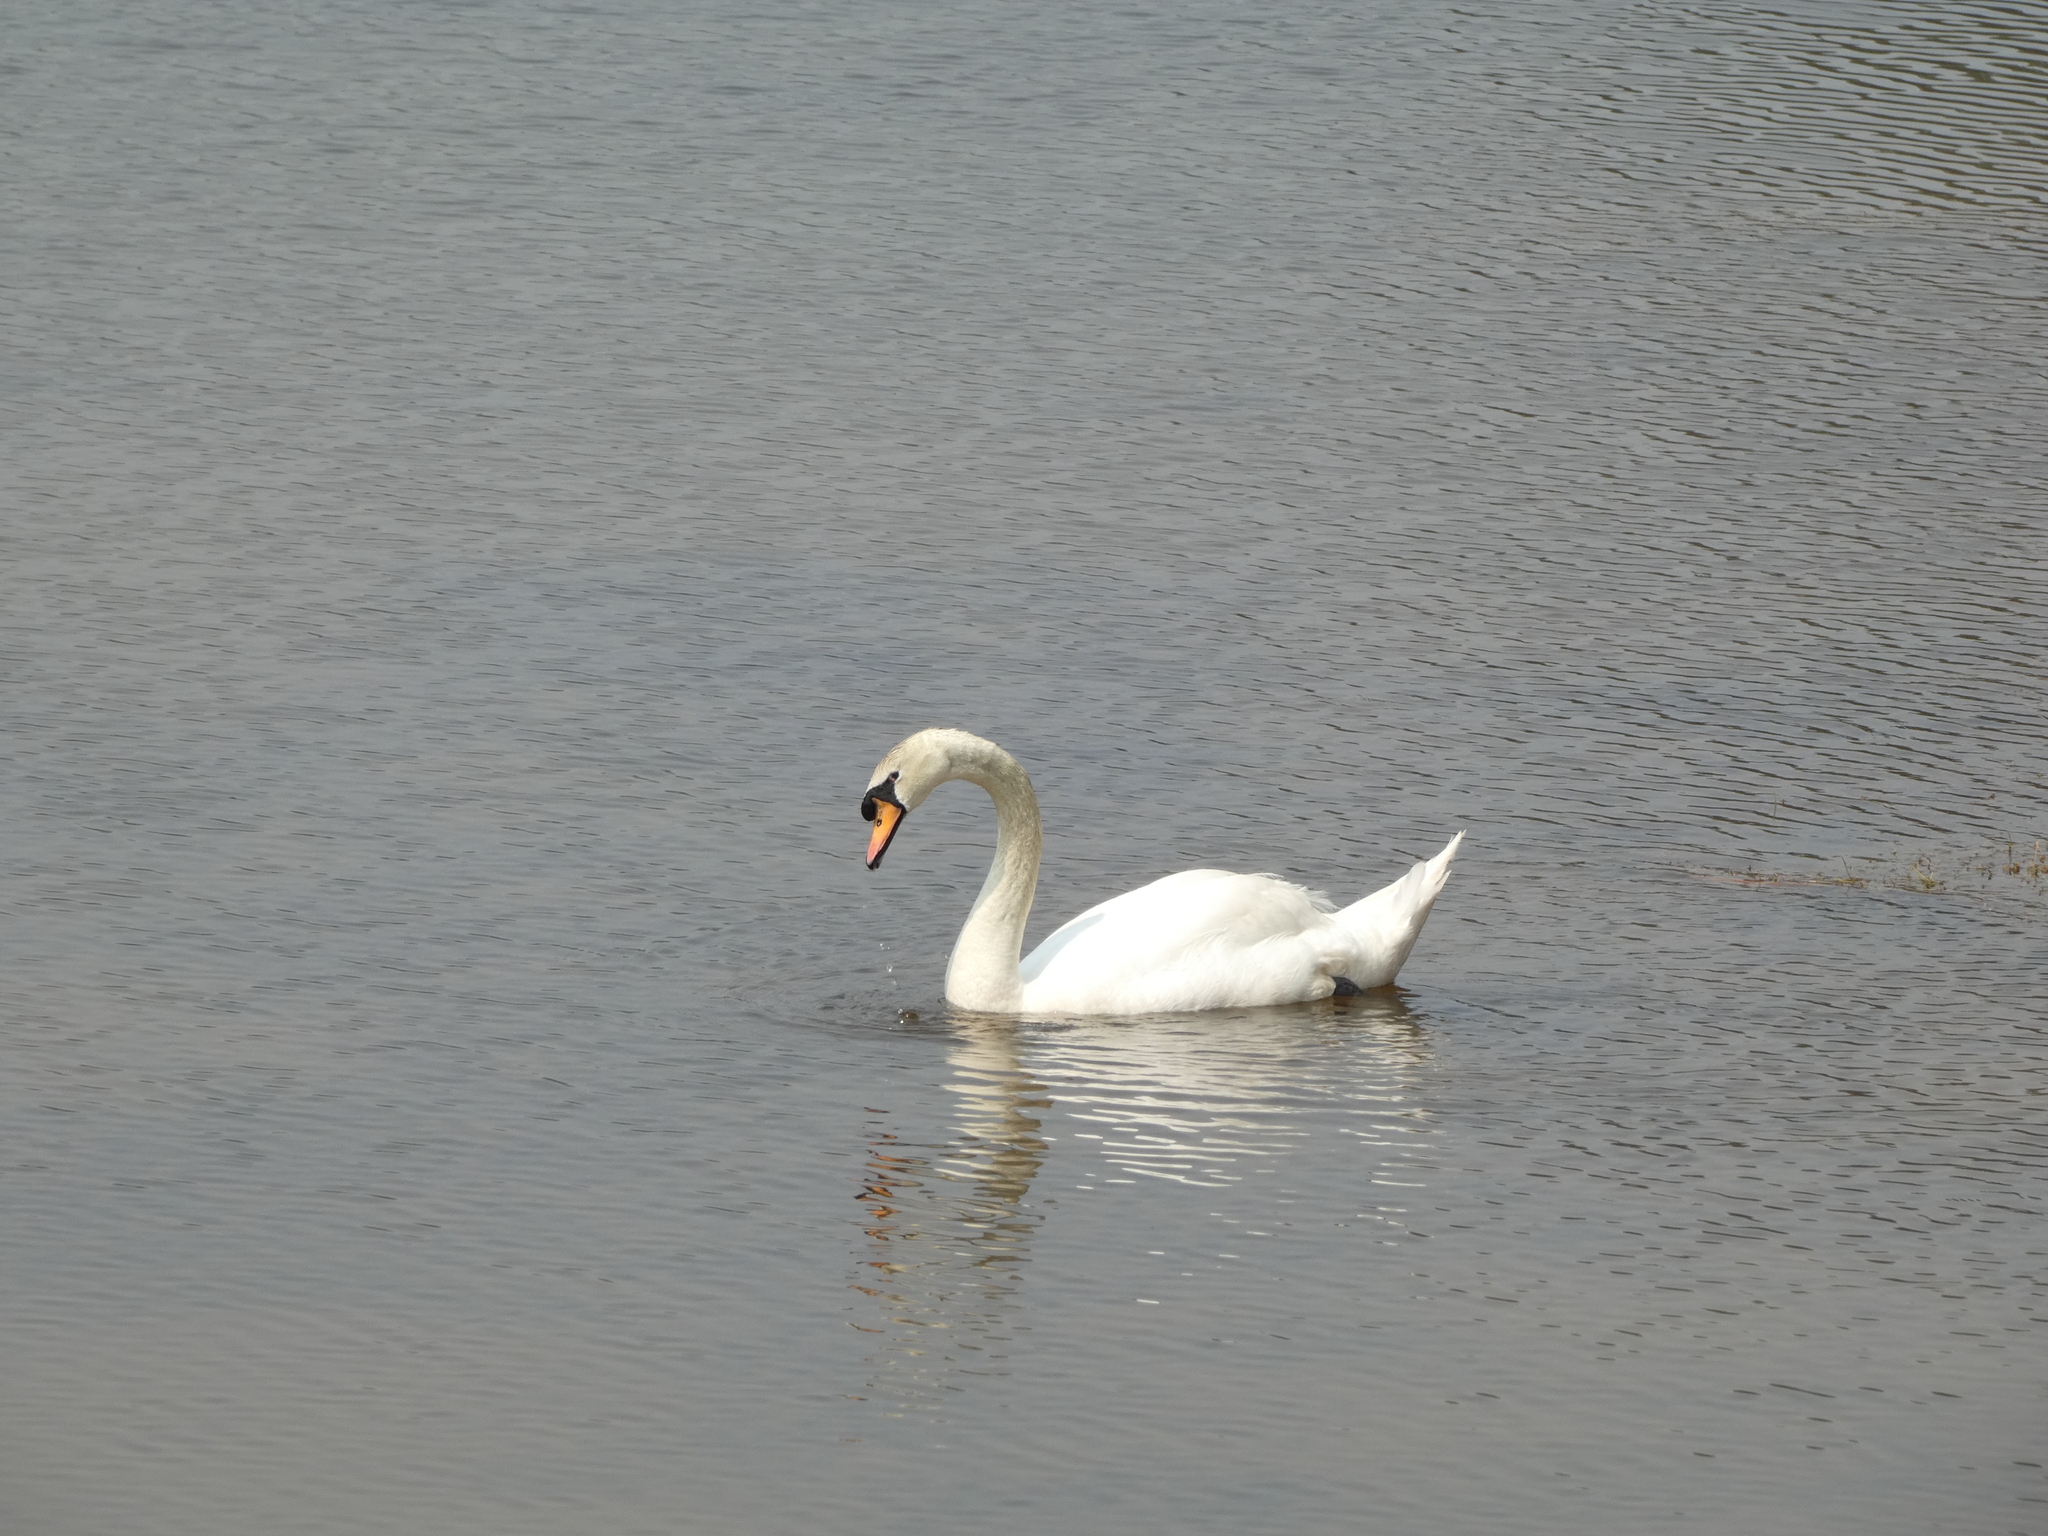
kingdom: Animalia
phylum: Chordata
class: Aves
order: Anseriformes
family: Anatidae
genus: Cygnus
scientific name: Cygnus olor
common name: Mute swan
